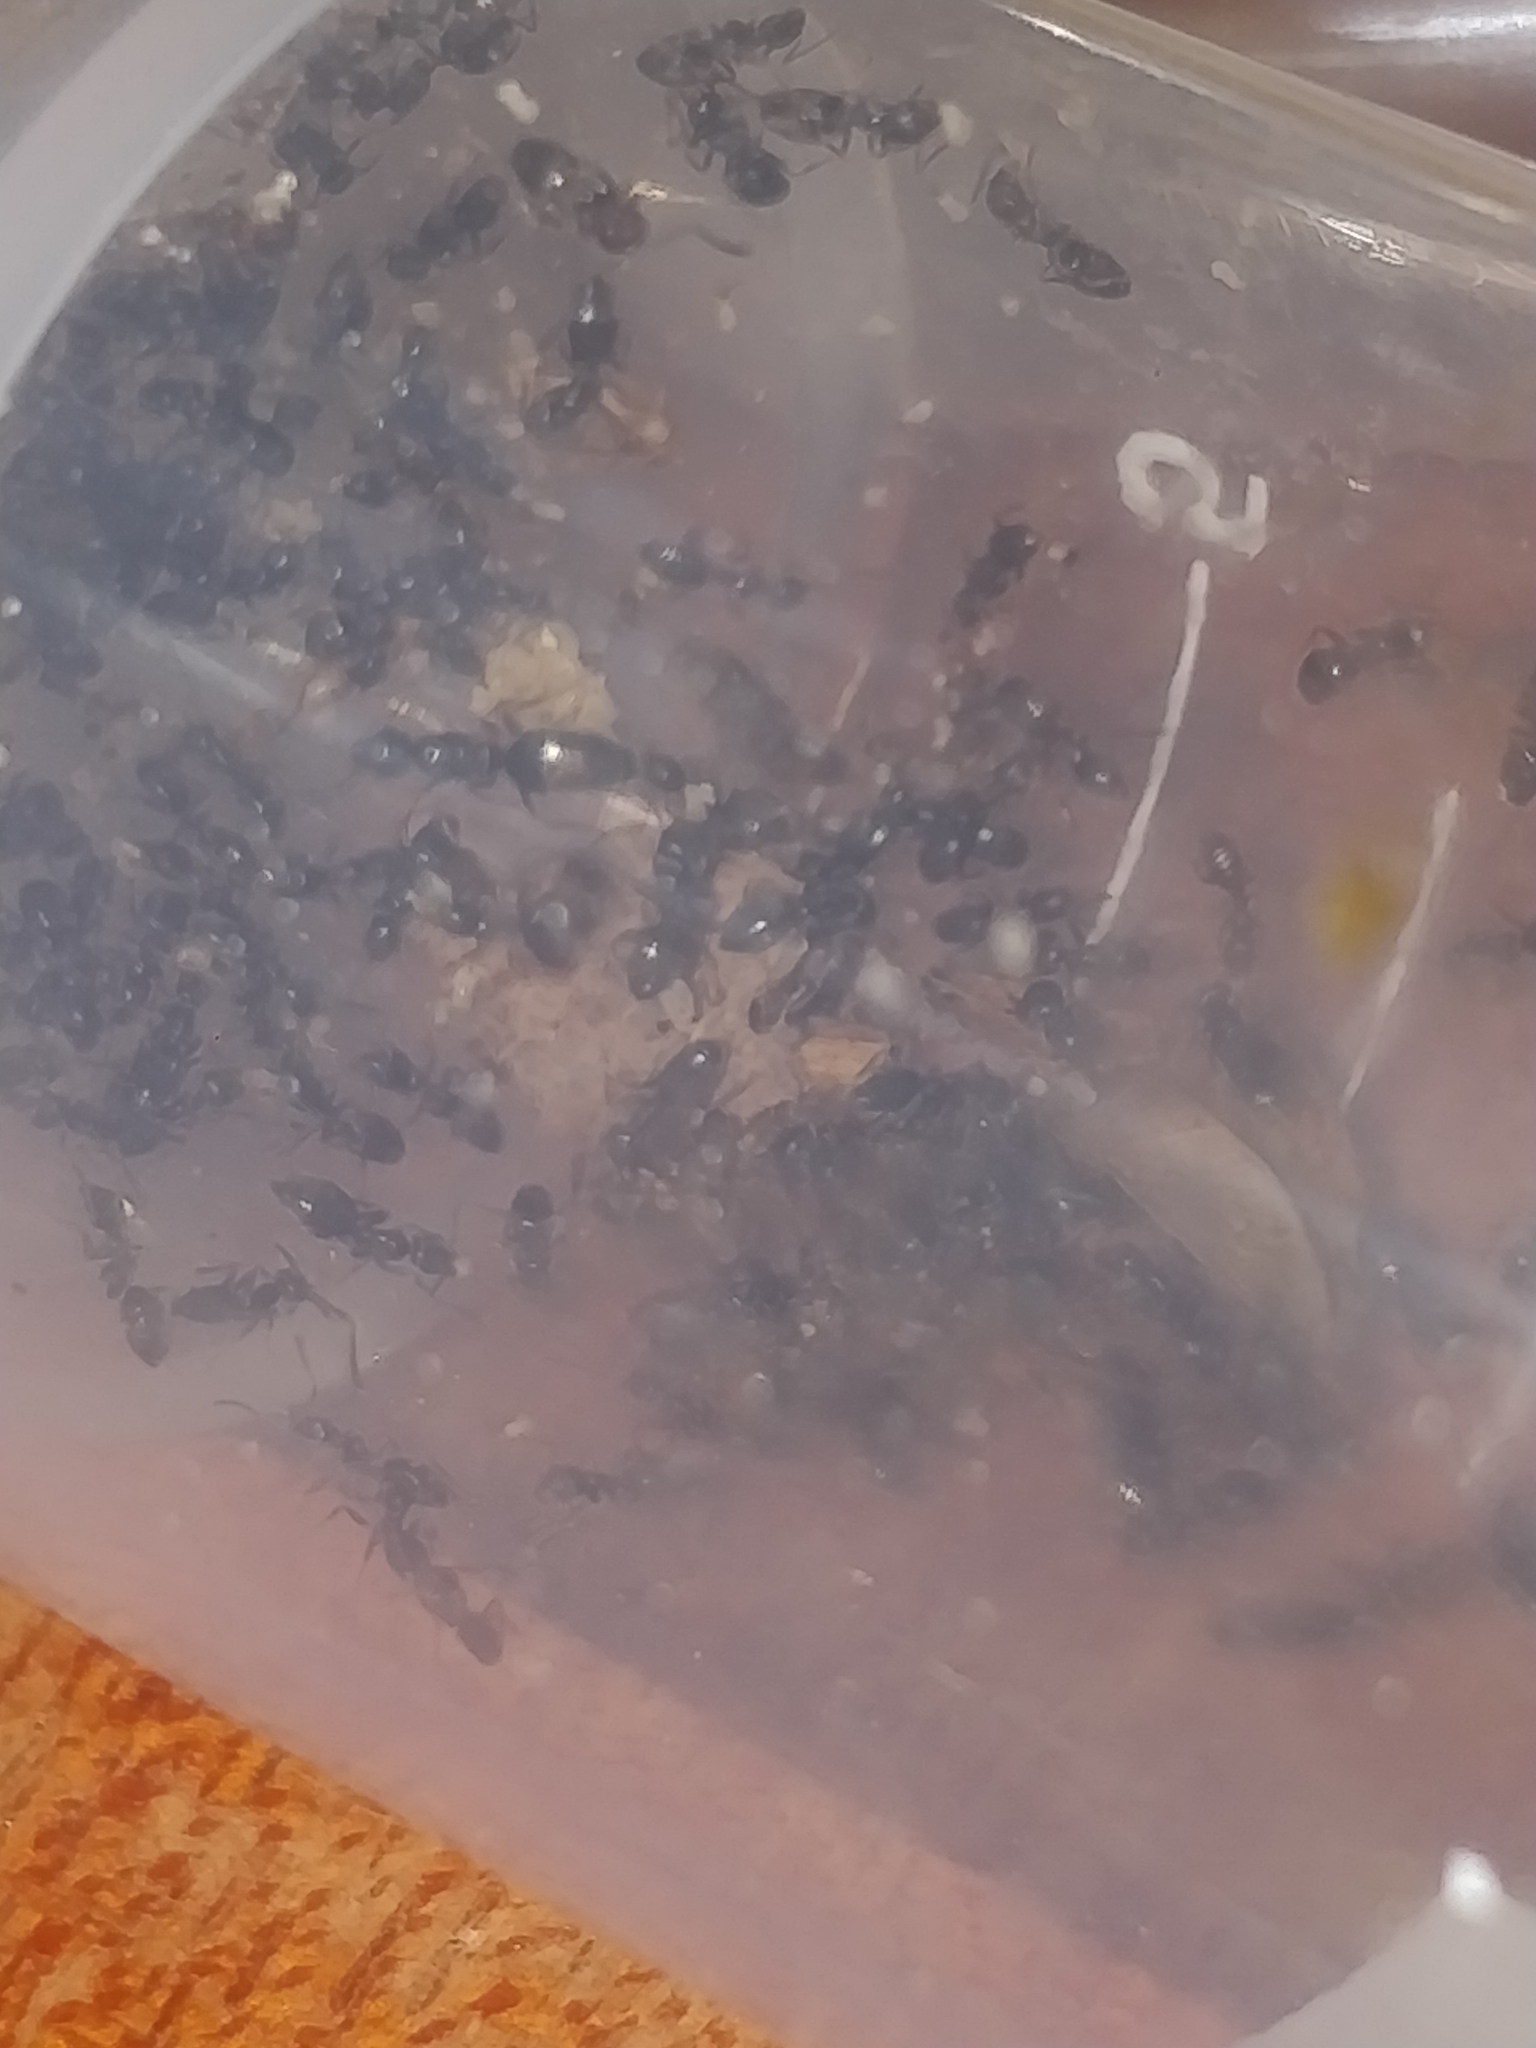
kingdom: Animalia
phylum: Arthropoda
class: Insecta
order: Hymenoptera
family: Formicidae
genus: Tapinoma
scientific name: Tapinoma sessile
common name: Odorous house ant
